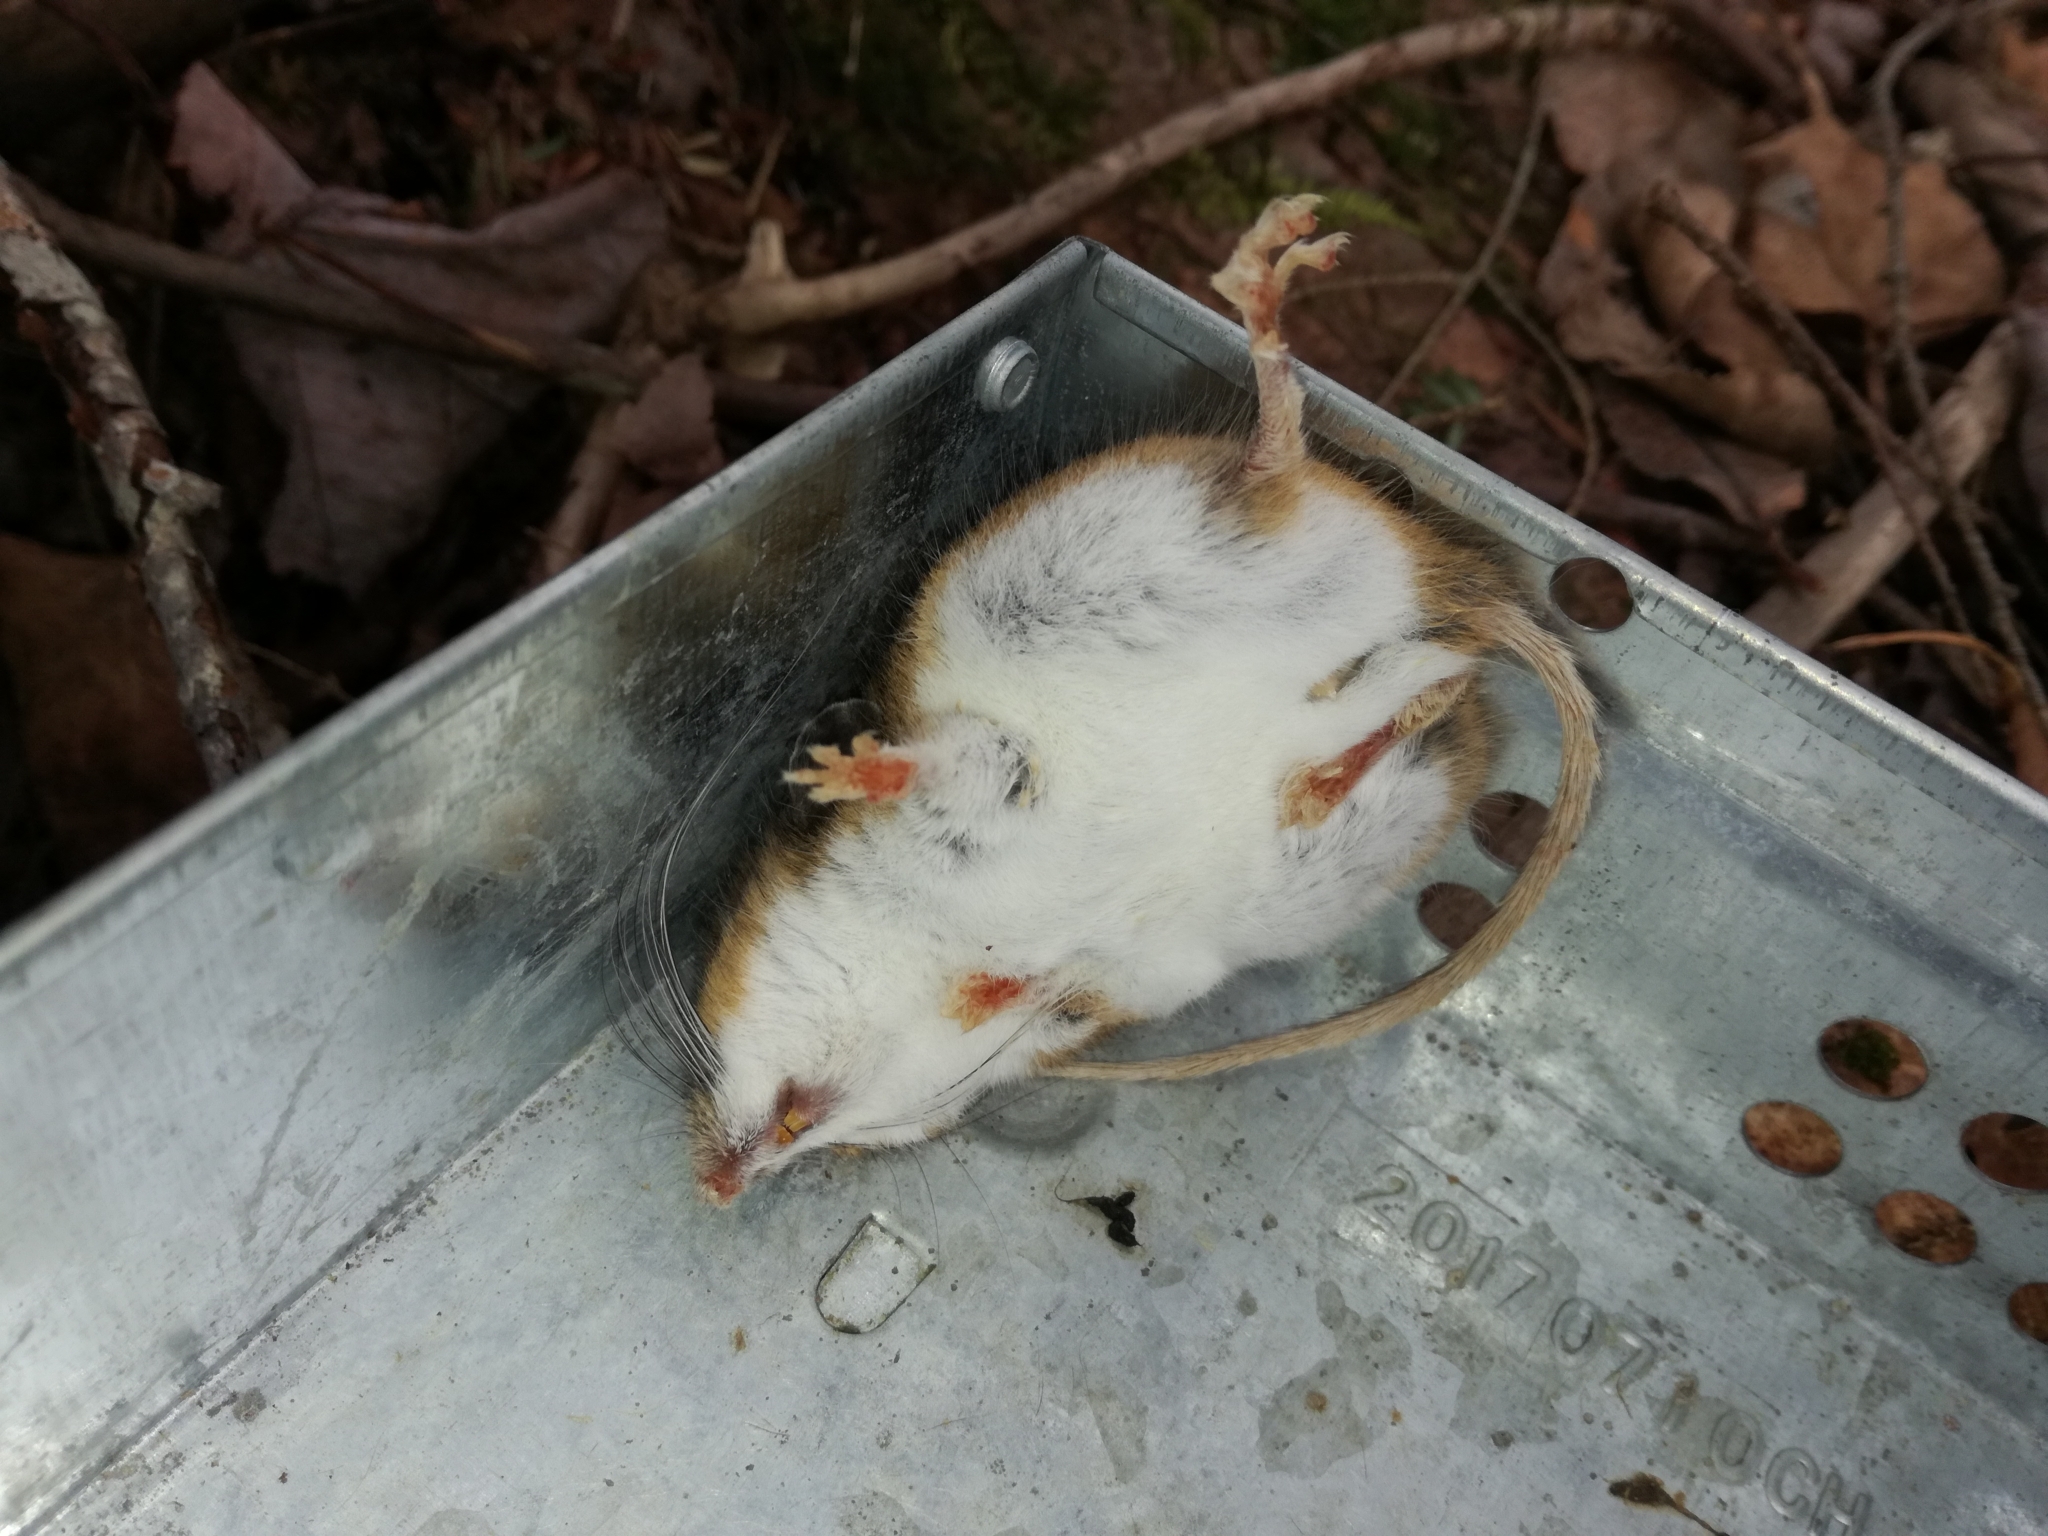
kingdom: Animalia
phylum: Chordata
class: Mammalia
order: Rodentia
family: Cricetidae
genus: Peromyscus
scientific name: Peromyscus leucopus
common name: White-footed deermouse
